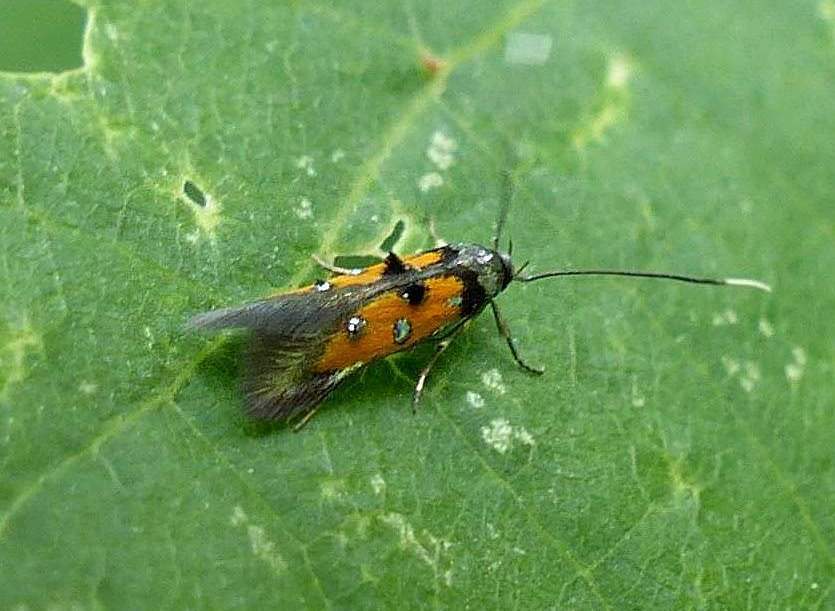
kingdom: Animalia
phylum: Arthropoda
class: Insecta
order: Lepidoptera
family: Elachistidae
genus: Chrysoclista
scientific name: Chrysoclista linneela
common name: Lime cosmet
